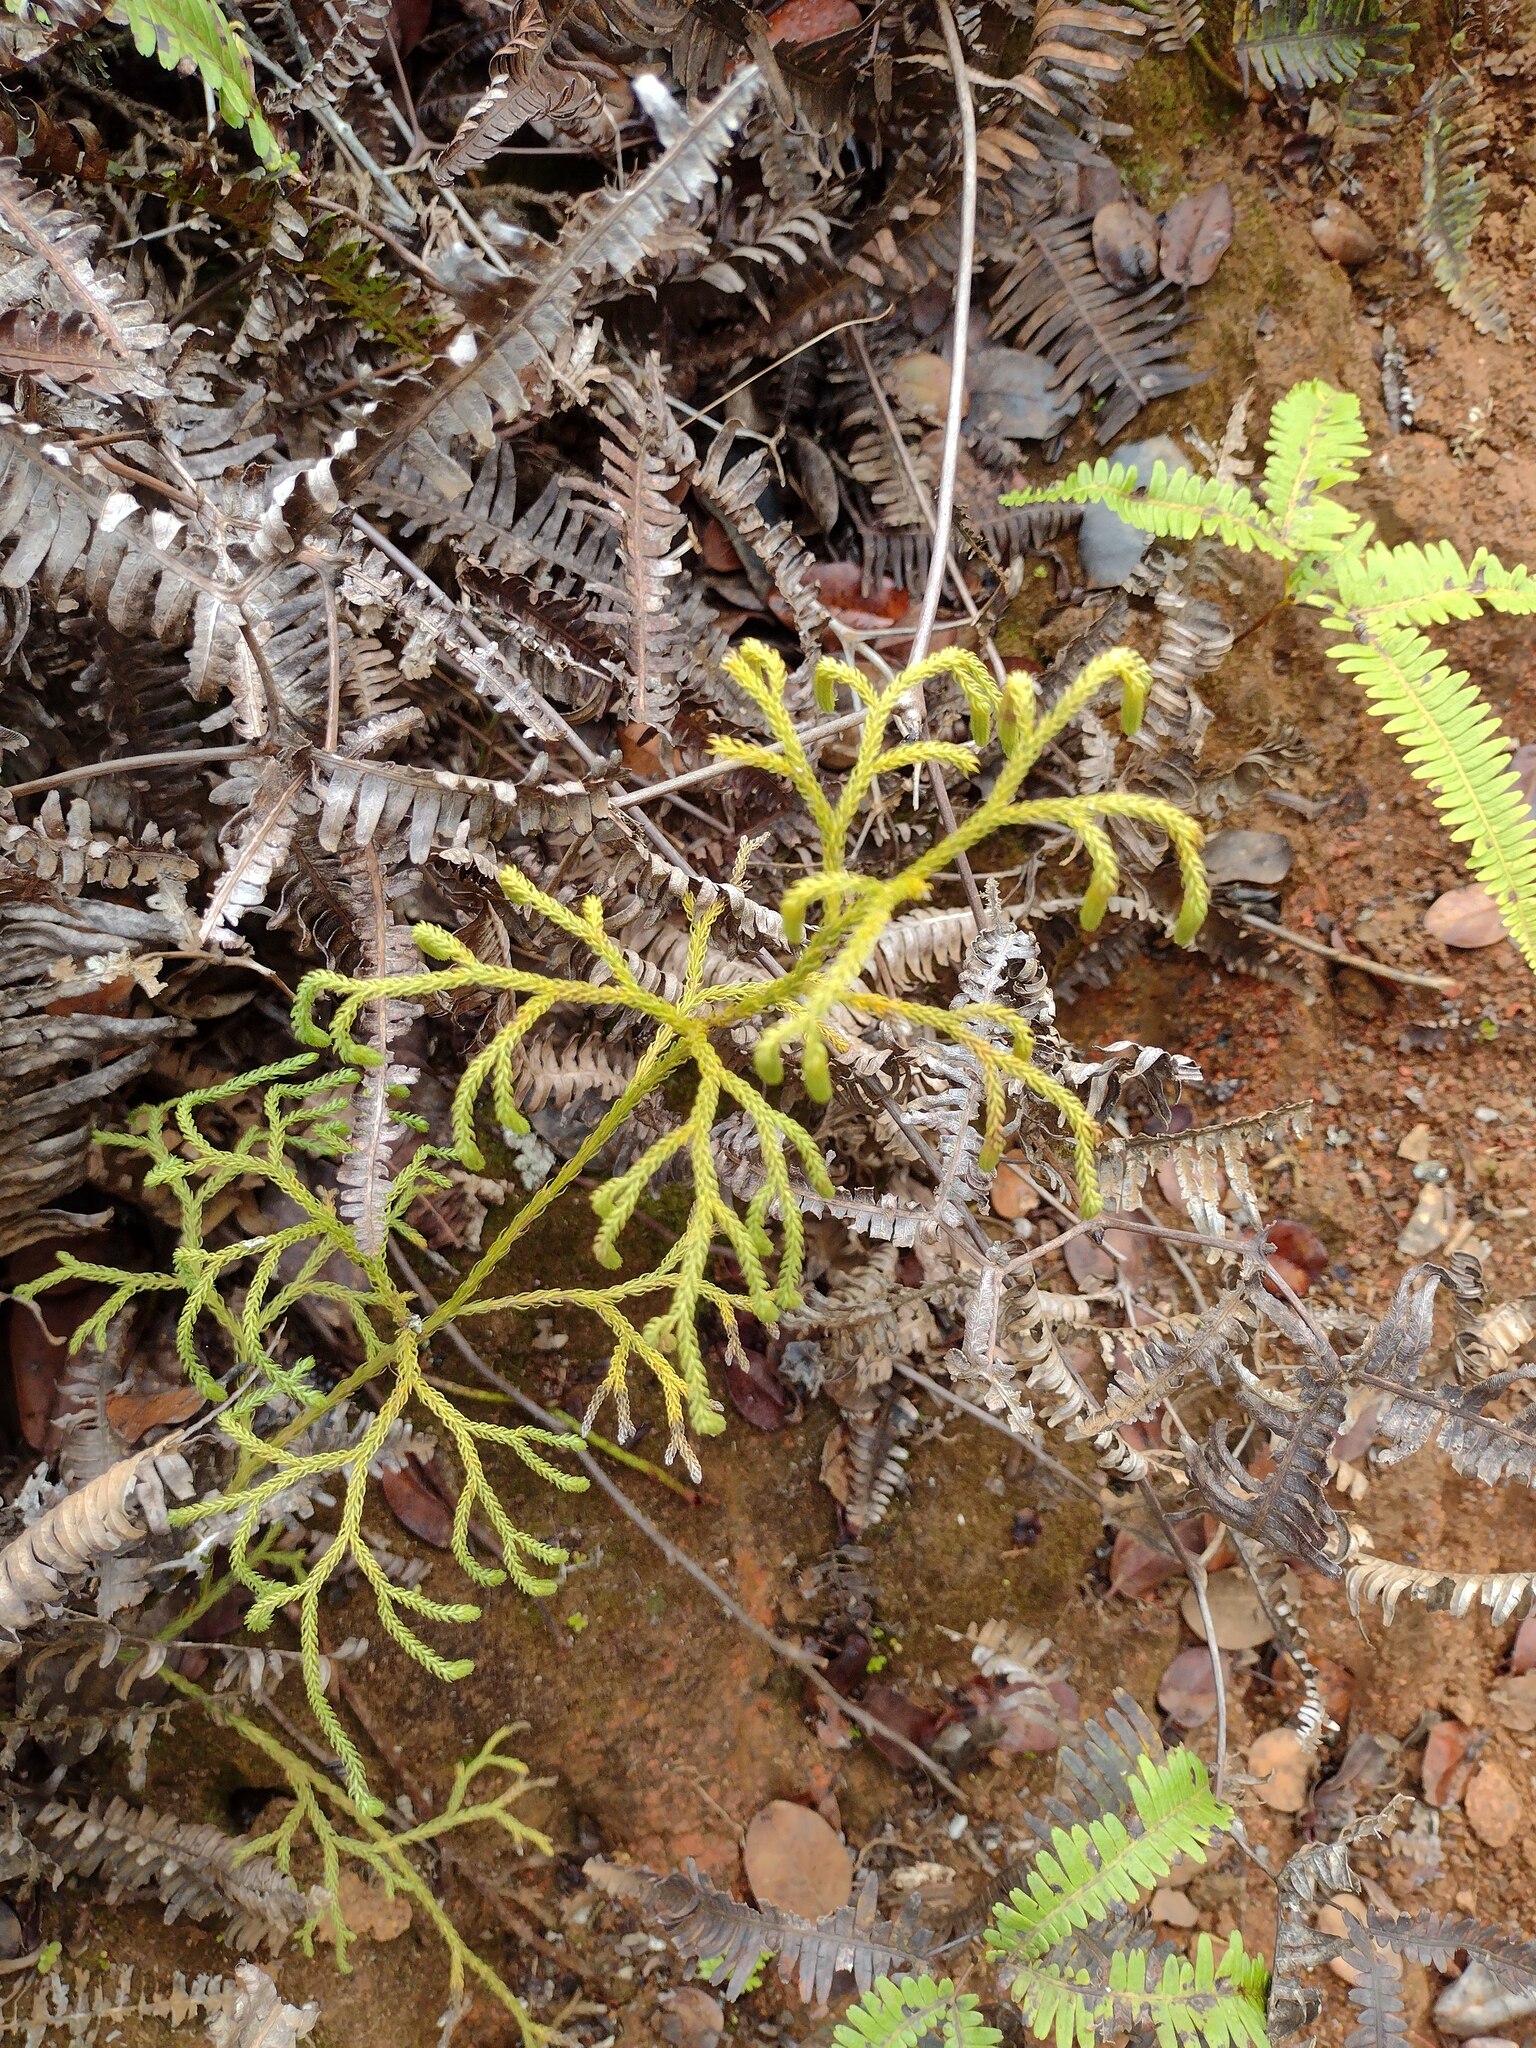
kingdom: Plantae
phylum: Tracheophyta
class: Lycopodiopsida
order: Lycopodiales
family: Lycopodiaceae
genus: Palhinhaea
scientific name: Palhinhaea cernua
